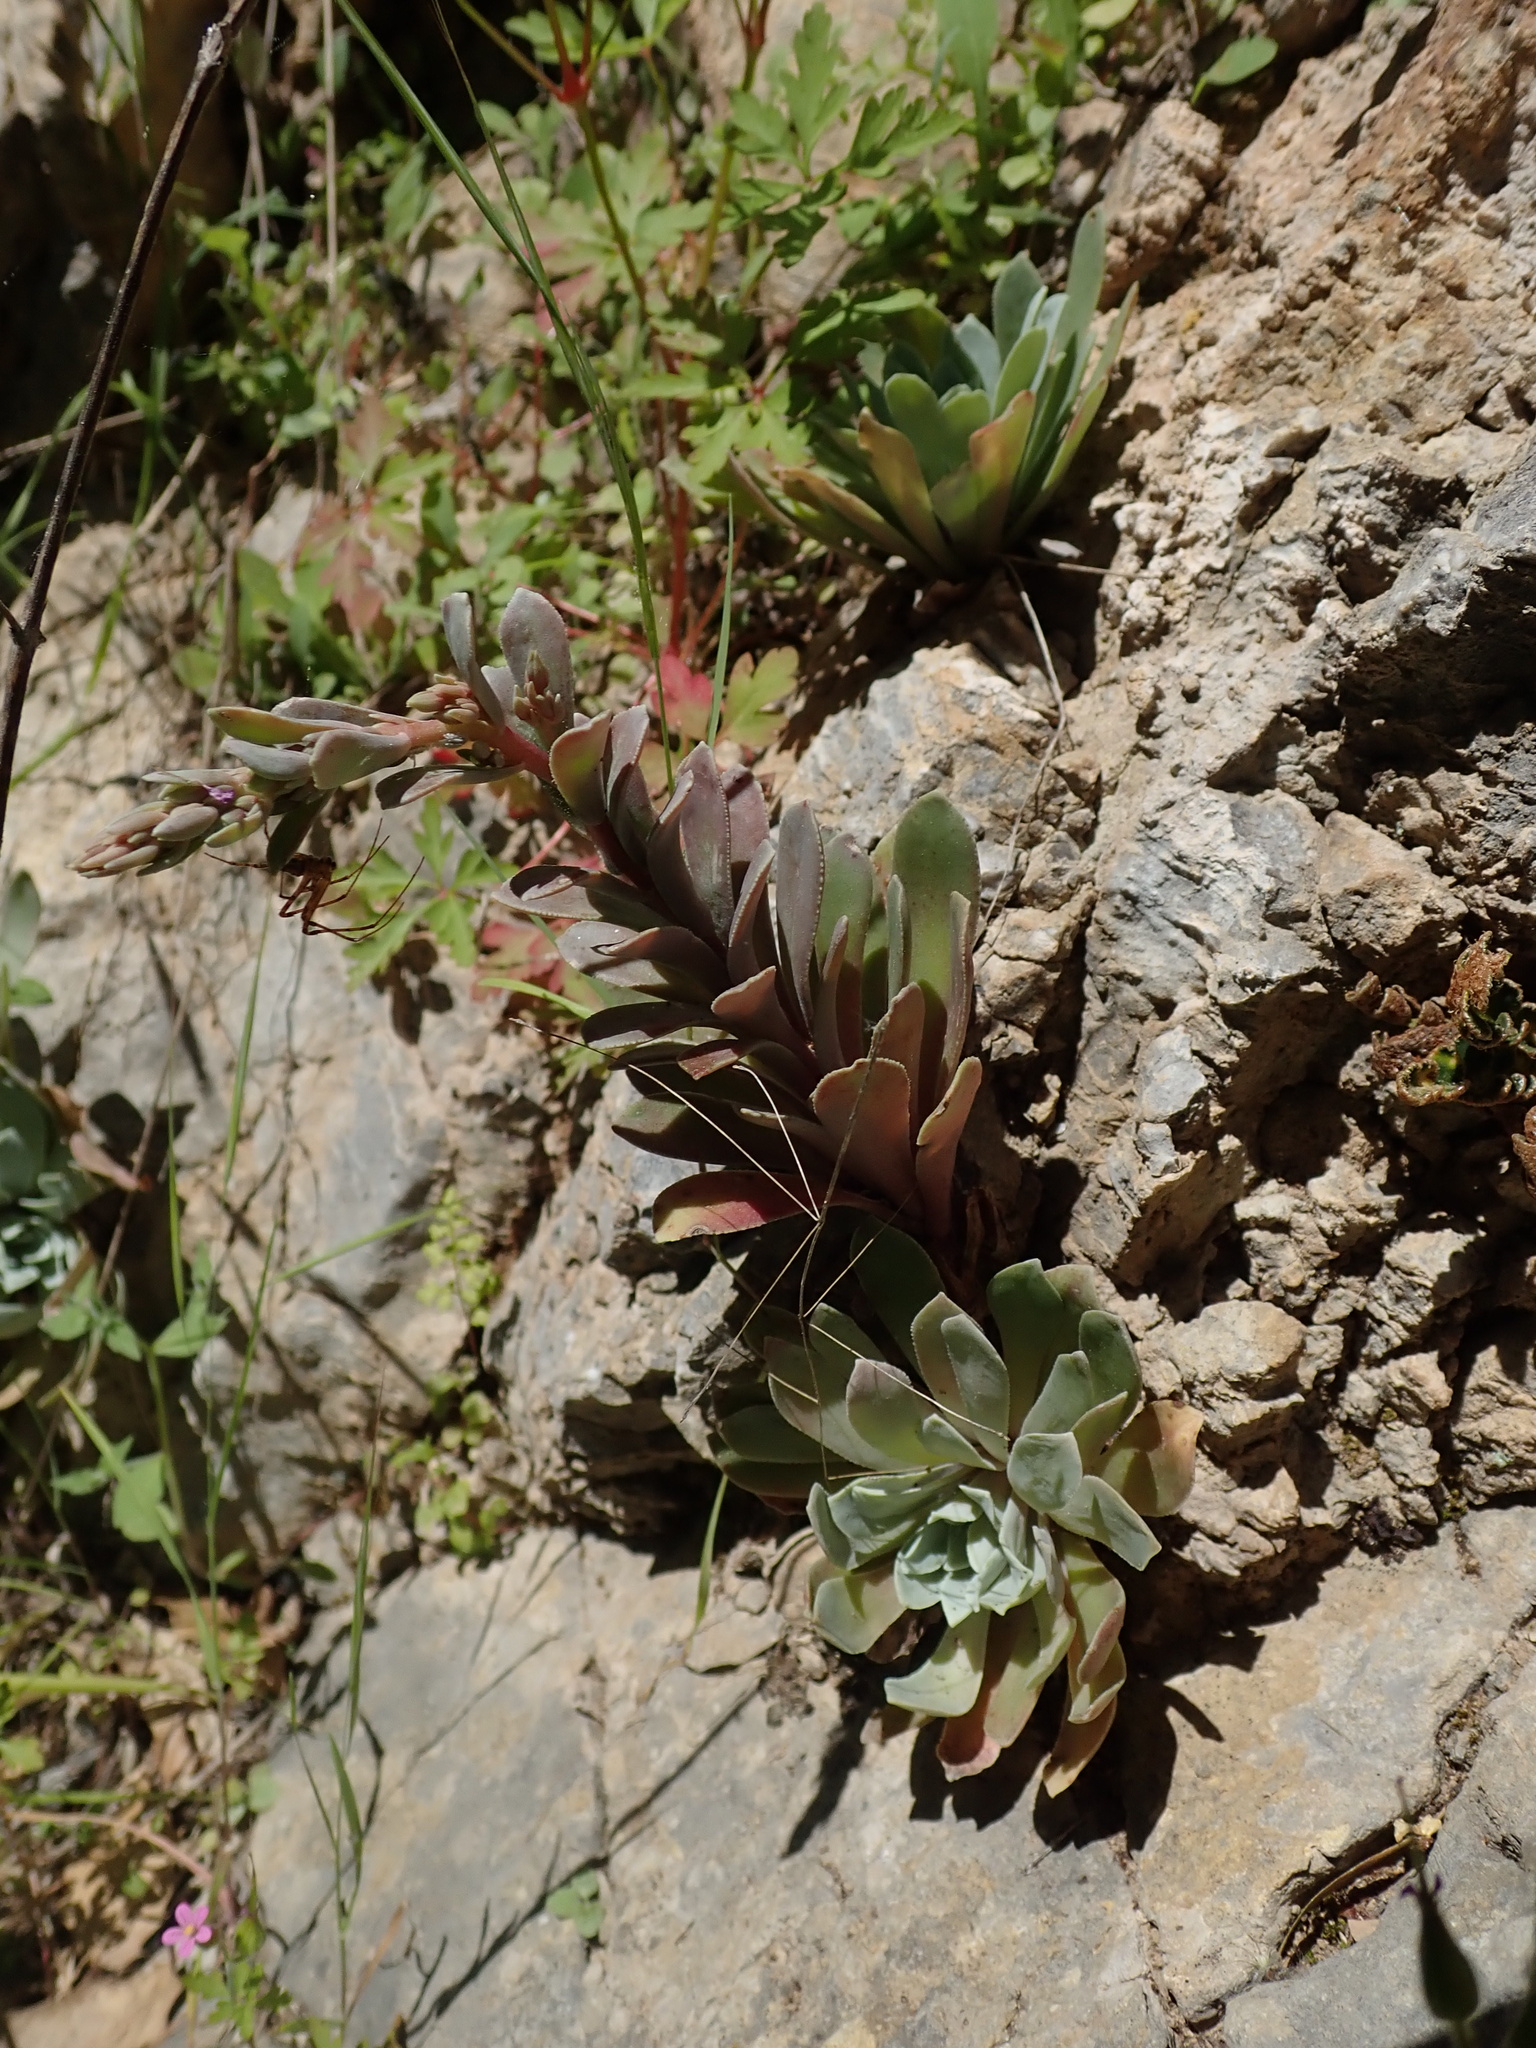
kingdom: Plantae
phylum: Tracheophyta
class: Magnoliopsida
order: Saxifragales
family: Crassulaceae
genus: Rosularia
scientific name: Rosularia serrata
